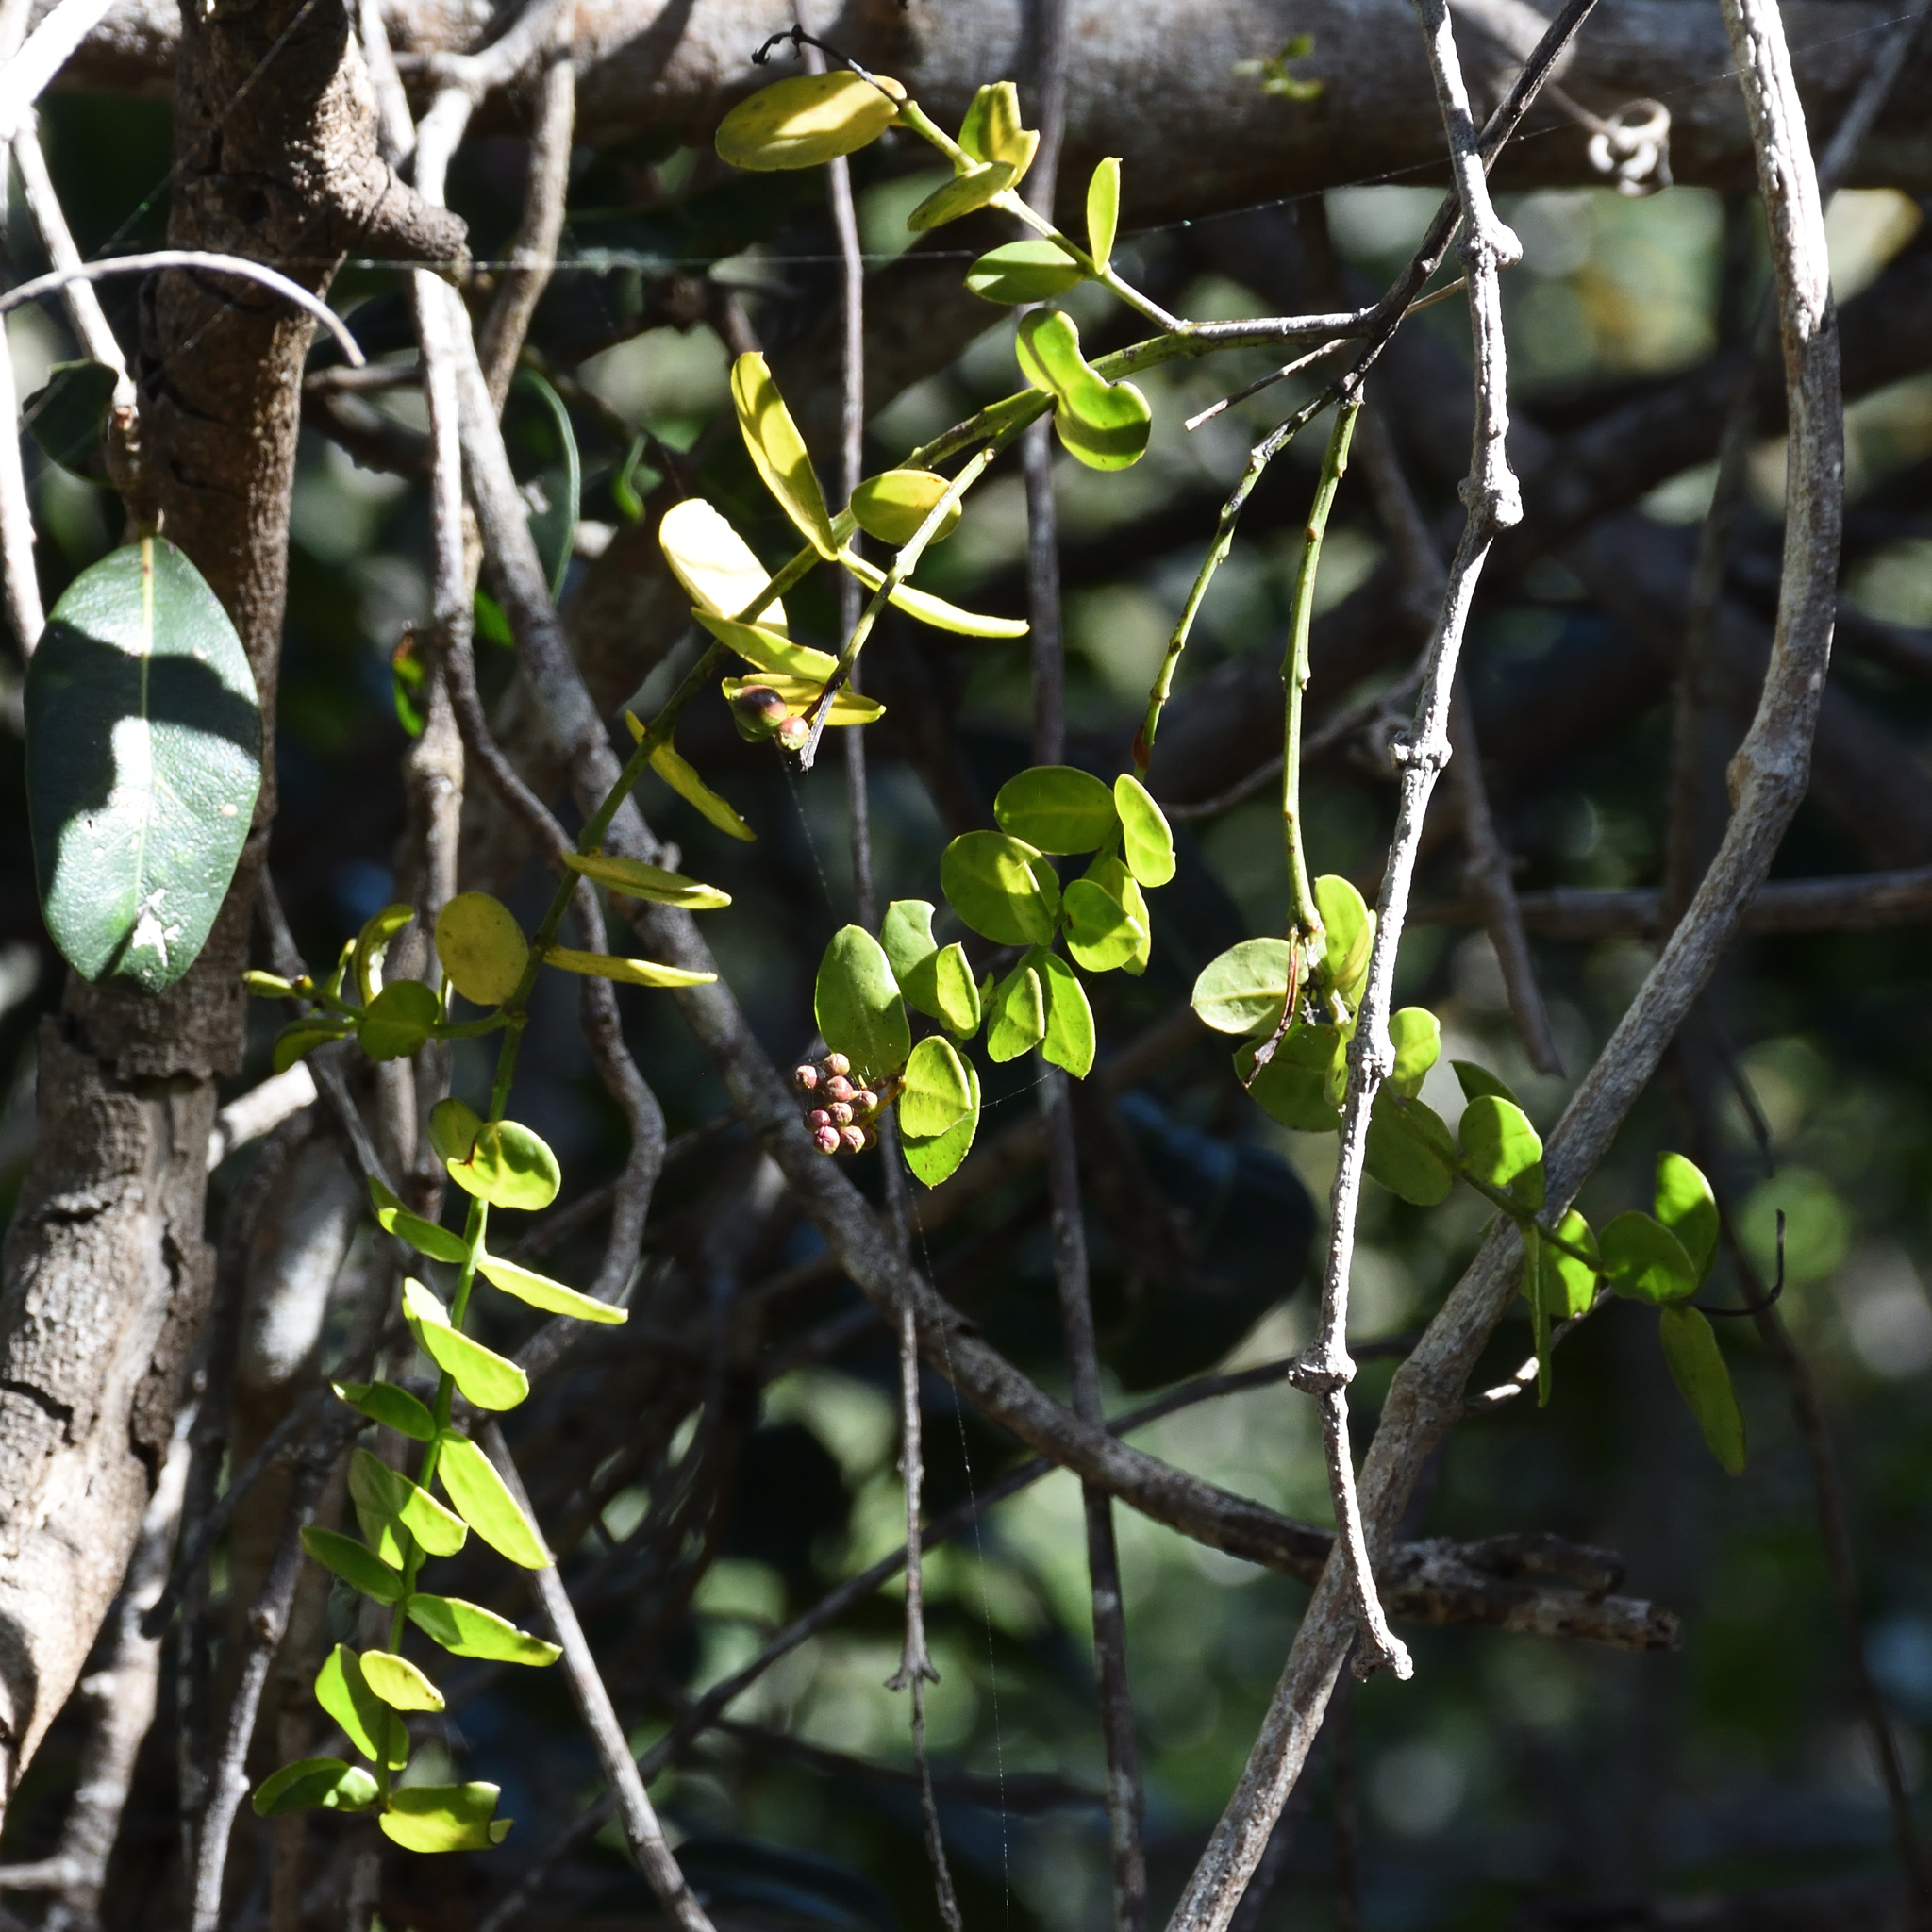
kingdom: Plantae
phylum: Tracheophyta
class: Magnoliopsida
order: Santalales
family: Santalaceae
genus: Rhoiacarpos
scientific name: Rhoiacarpos capensis
